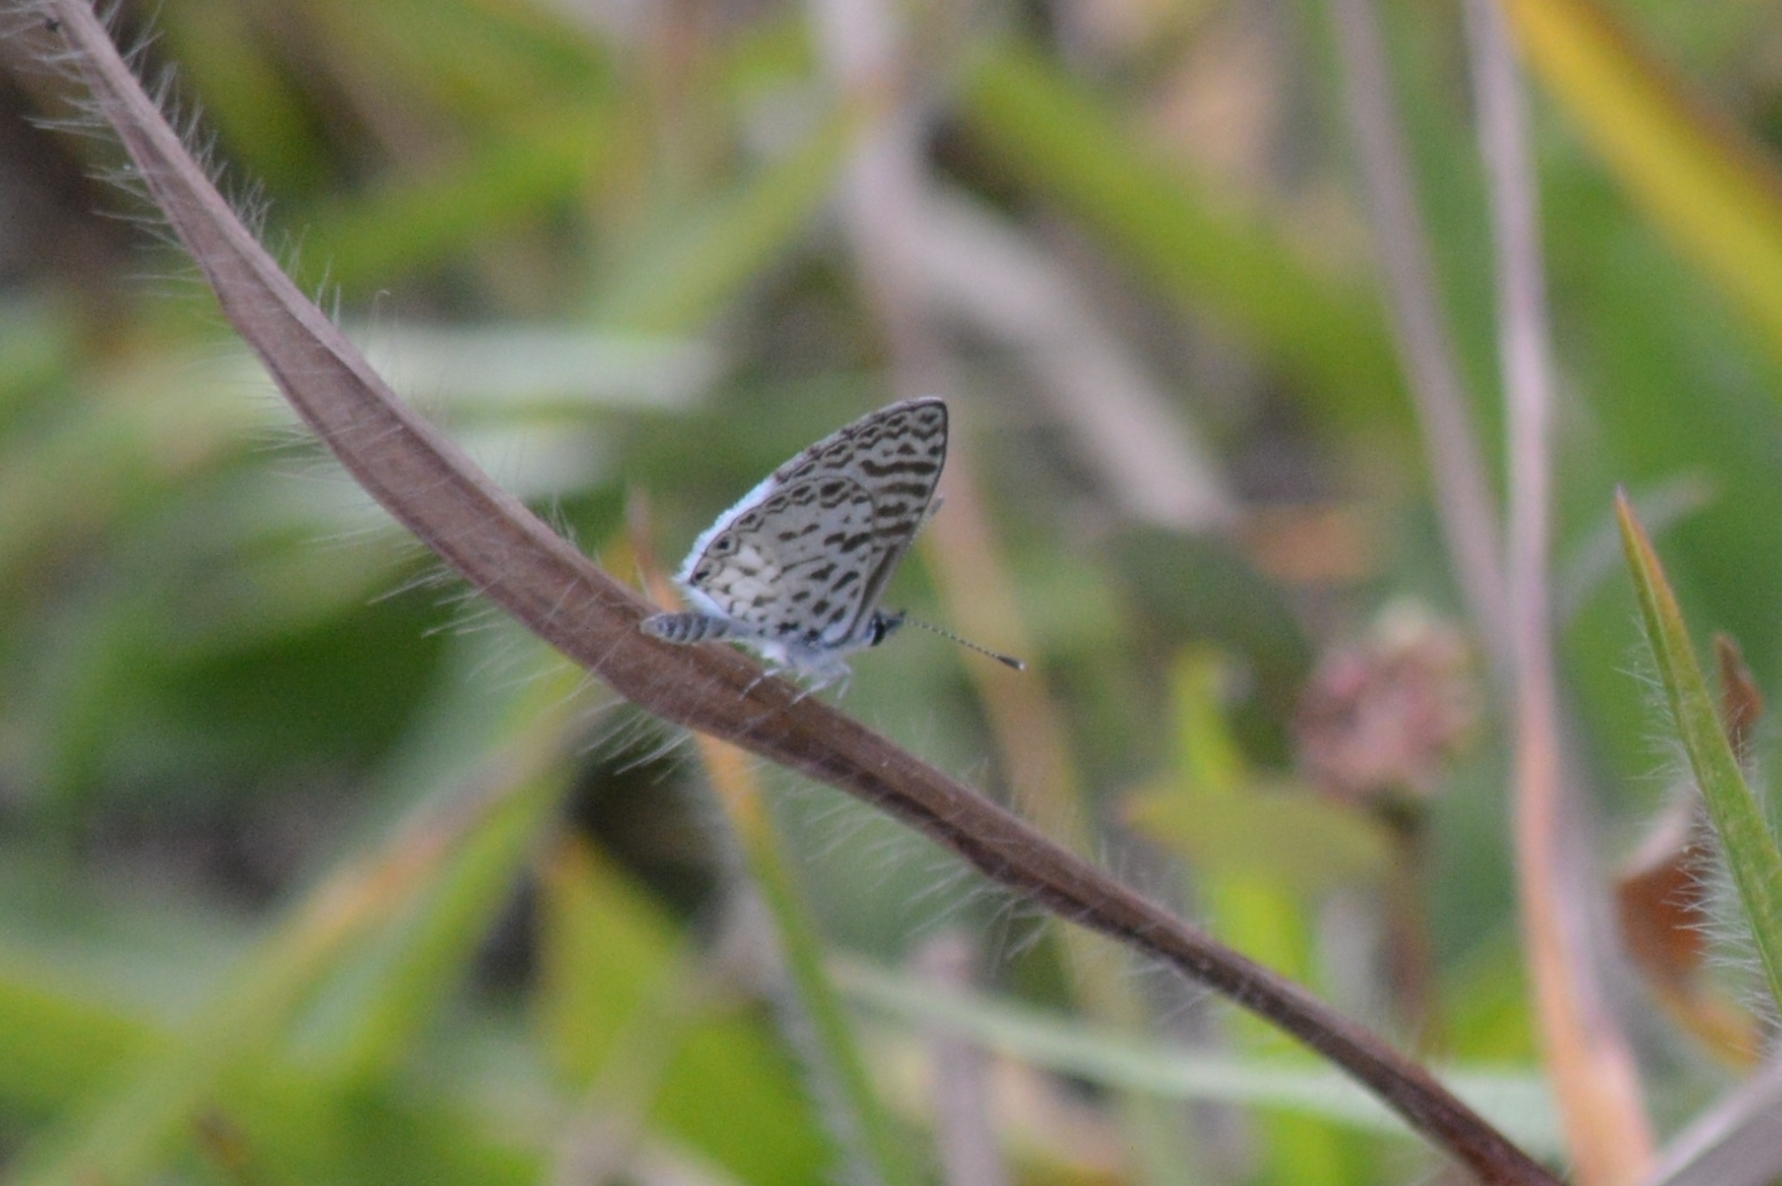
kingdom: Animalia
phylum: Arthropoda
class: Insecta
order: Lepidoptera
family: Lycaenidae
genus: Leptotes
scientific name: Leptotes cassius
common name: Cassius blue
